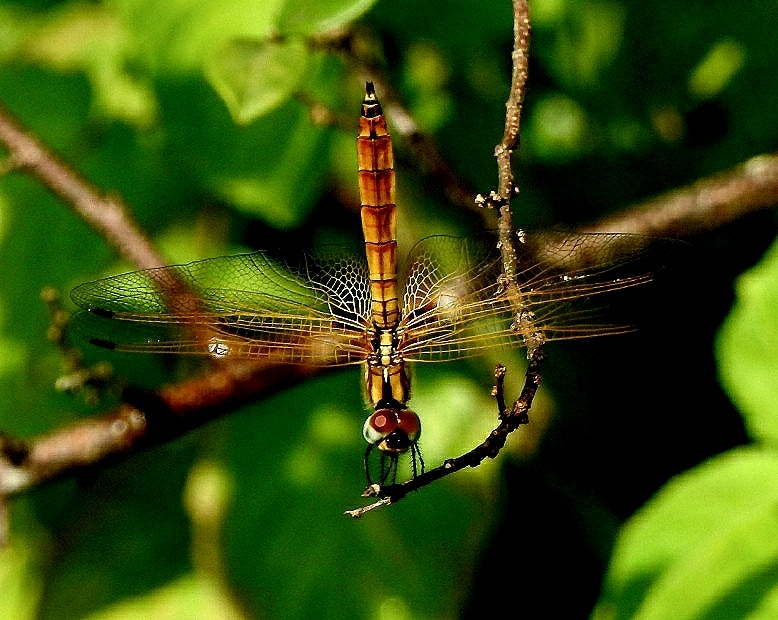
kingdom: Animalia
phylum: Arthropoda
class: Insecta
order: Odonata
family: Libellulidae
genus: Trithemis
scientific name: Trithemis aurora
